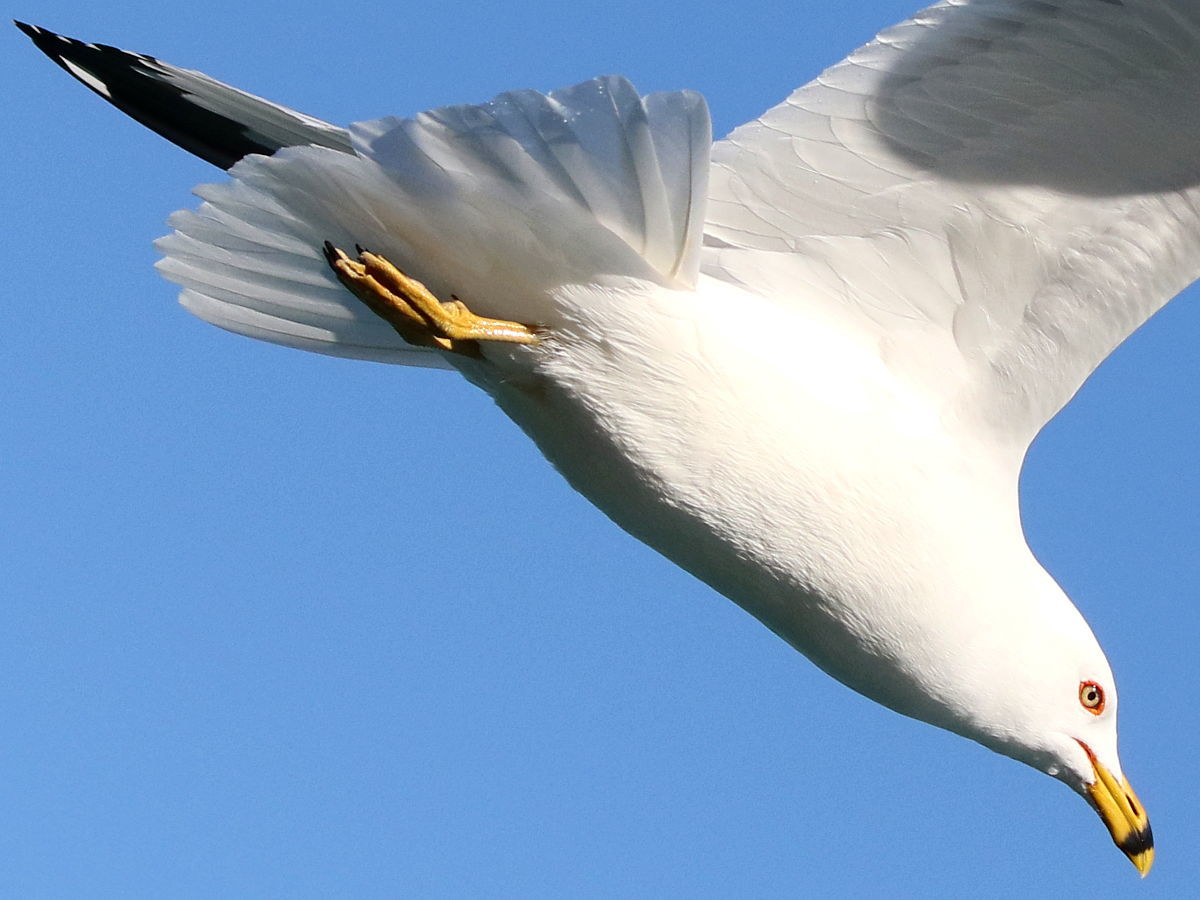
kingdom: Animalia
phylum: Chordata
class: Aves
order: Charadriiformes
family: Laridae
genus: Larus
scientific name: Larus delawarensis
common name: Ring-billed gull
